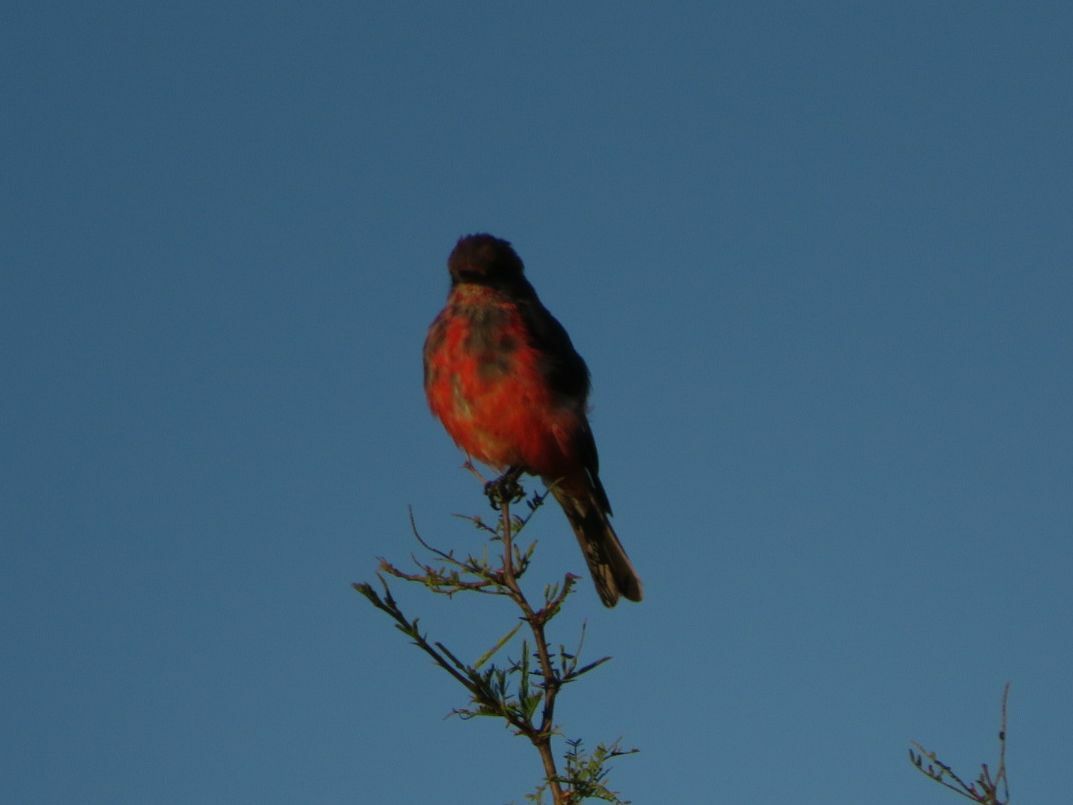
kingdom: Animalia
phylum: Chordata
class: Aves
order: Passeriformes
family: Tyrannidae
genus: Pyrocephalus
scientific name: Pyrocephalus rubinus
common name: Vermilion flycatcher
